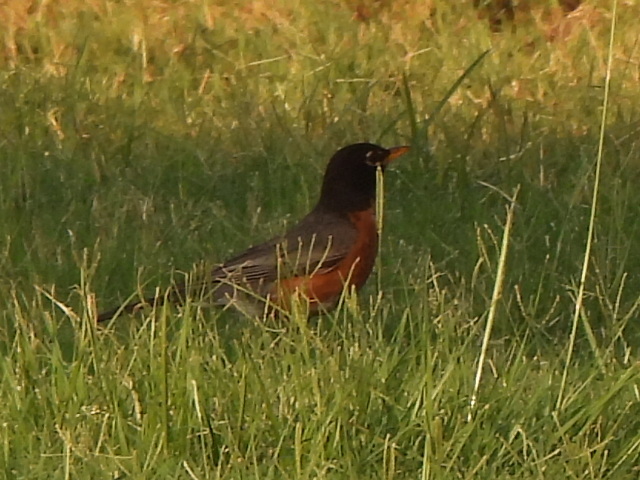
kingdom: Animalia
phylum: Chordata
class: Aves
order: Passeriformes
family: Turdidae
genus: Turdus
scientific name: Turdus migratorius
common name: American robin
